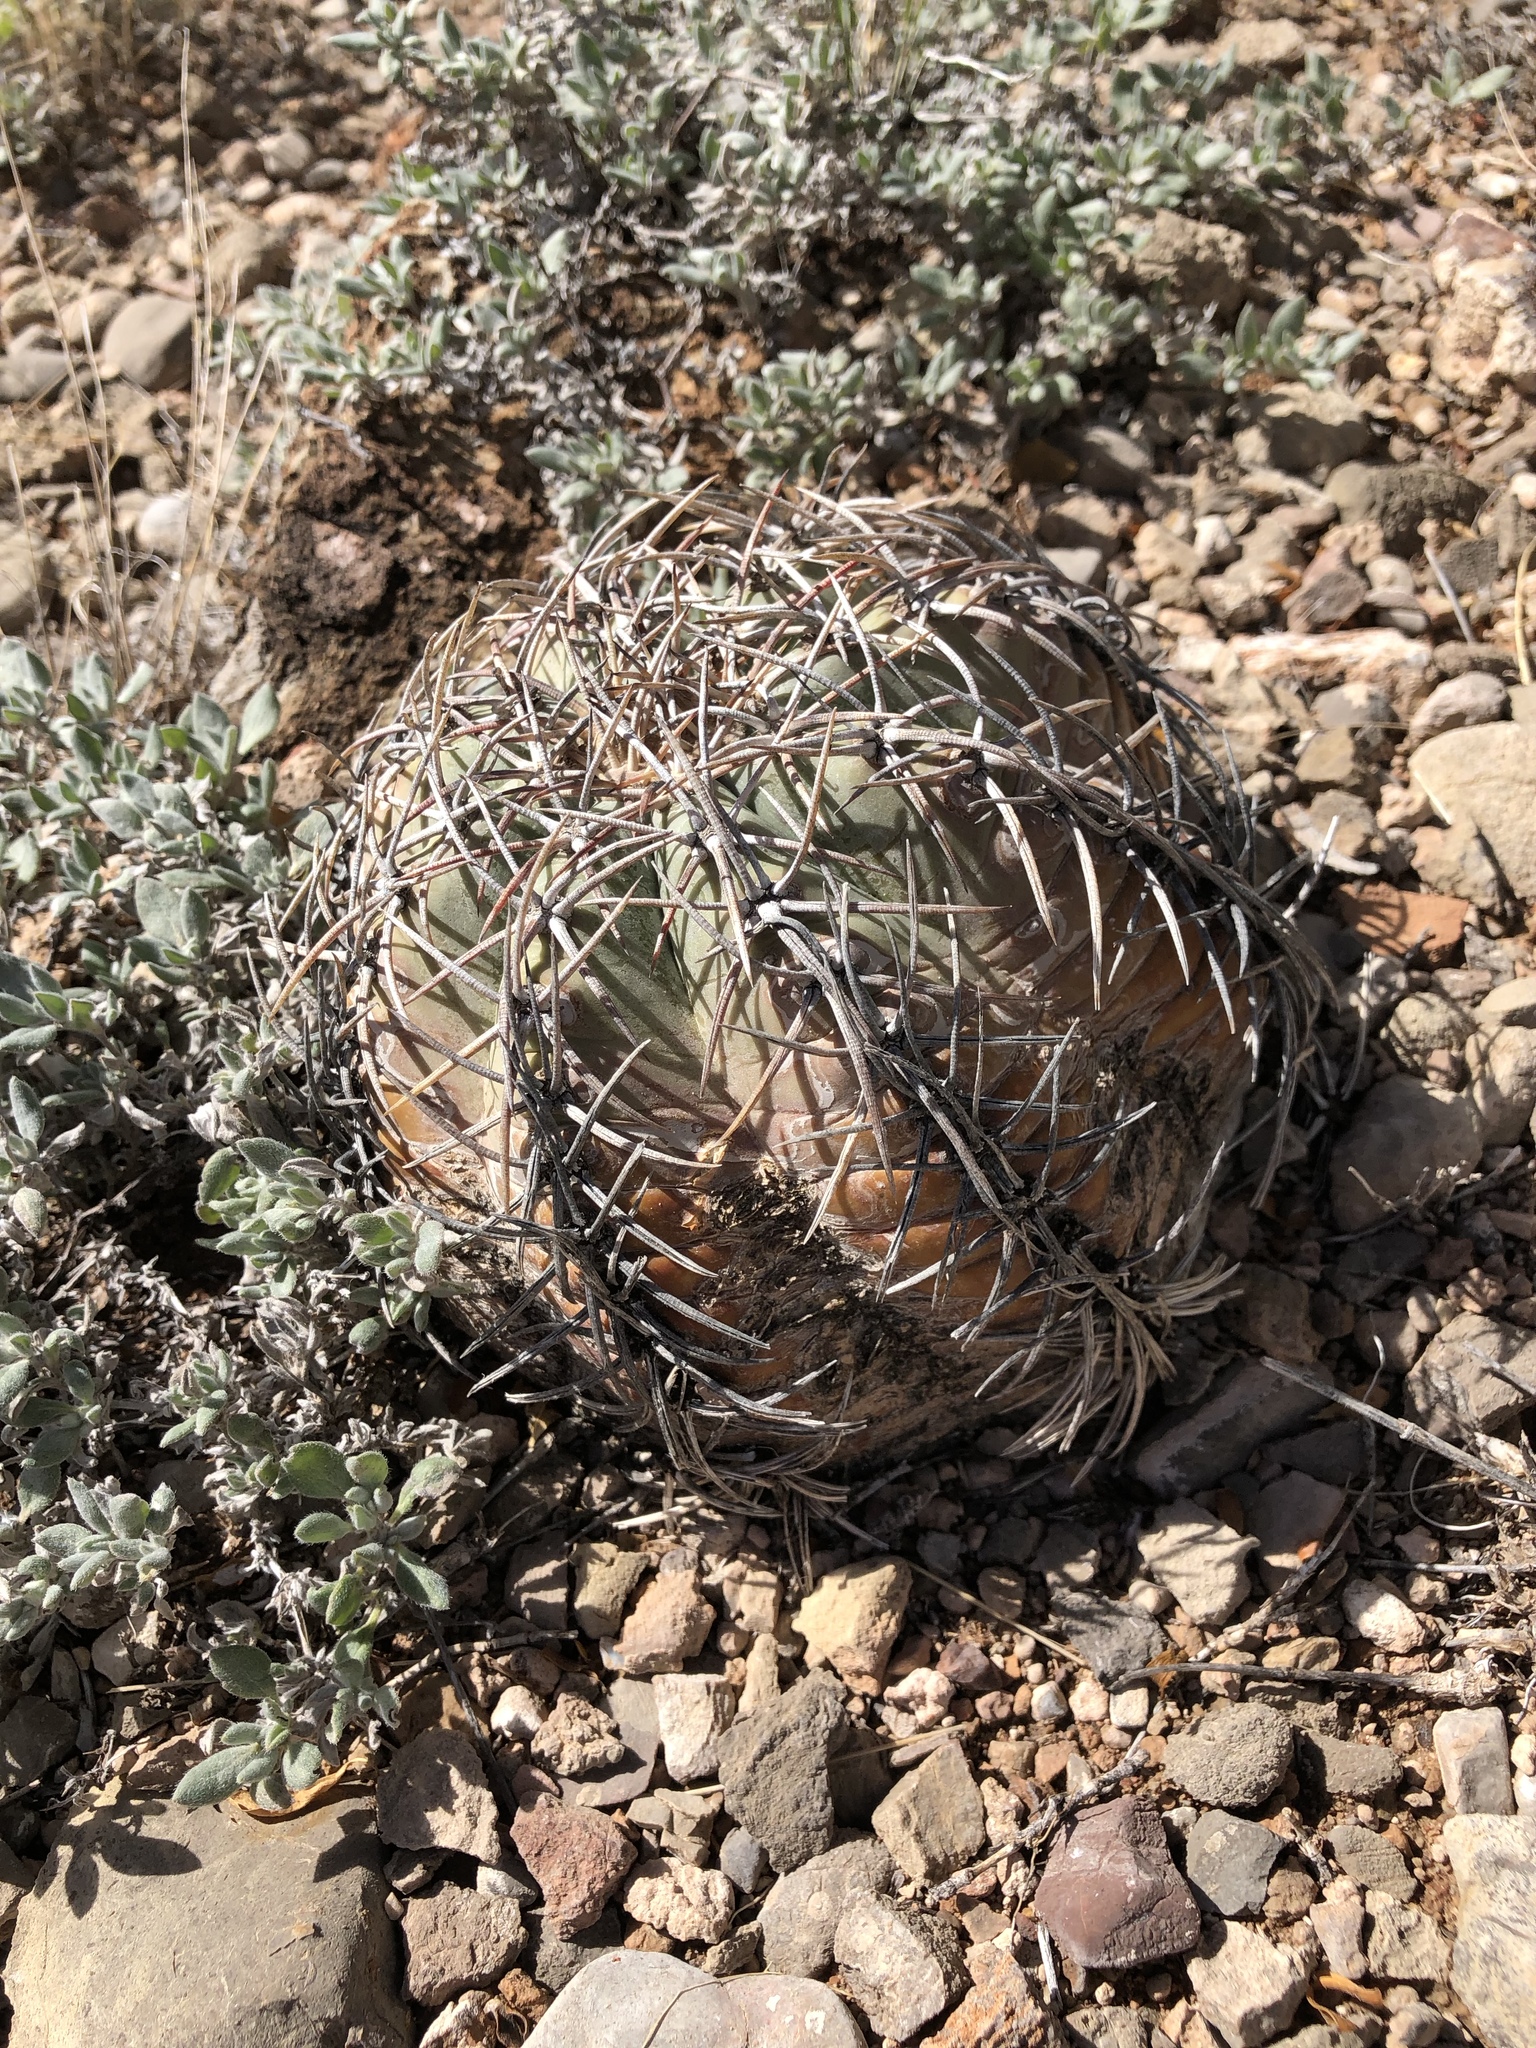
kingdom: Plantae
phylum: Tracheophyta
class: Magnoliopsida
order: Caryophyllales
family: Cactaceae
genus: Echinocactus
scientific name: Echinocactus horizonthalonius
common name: Devilshead
